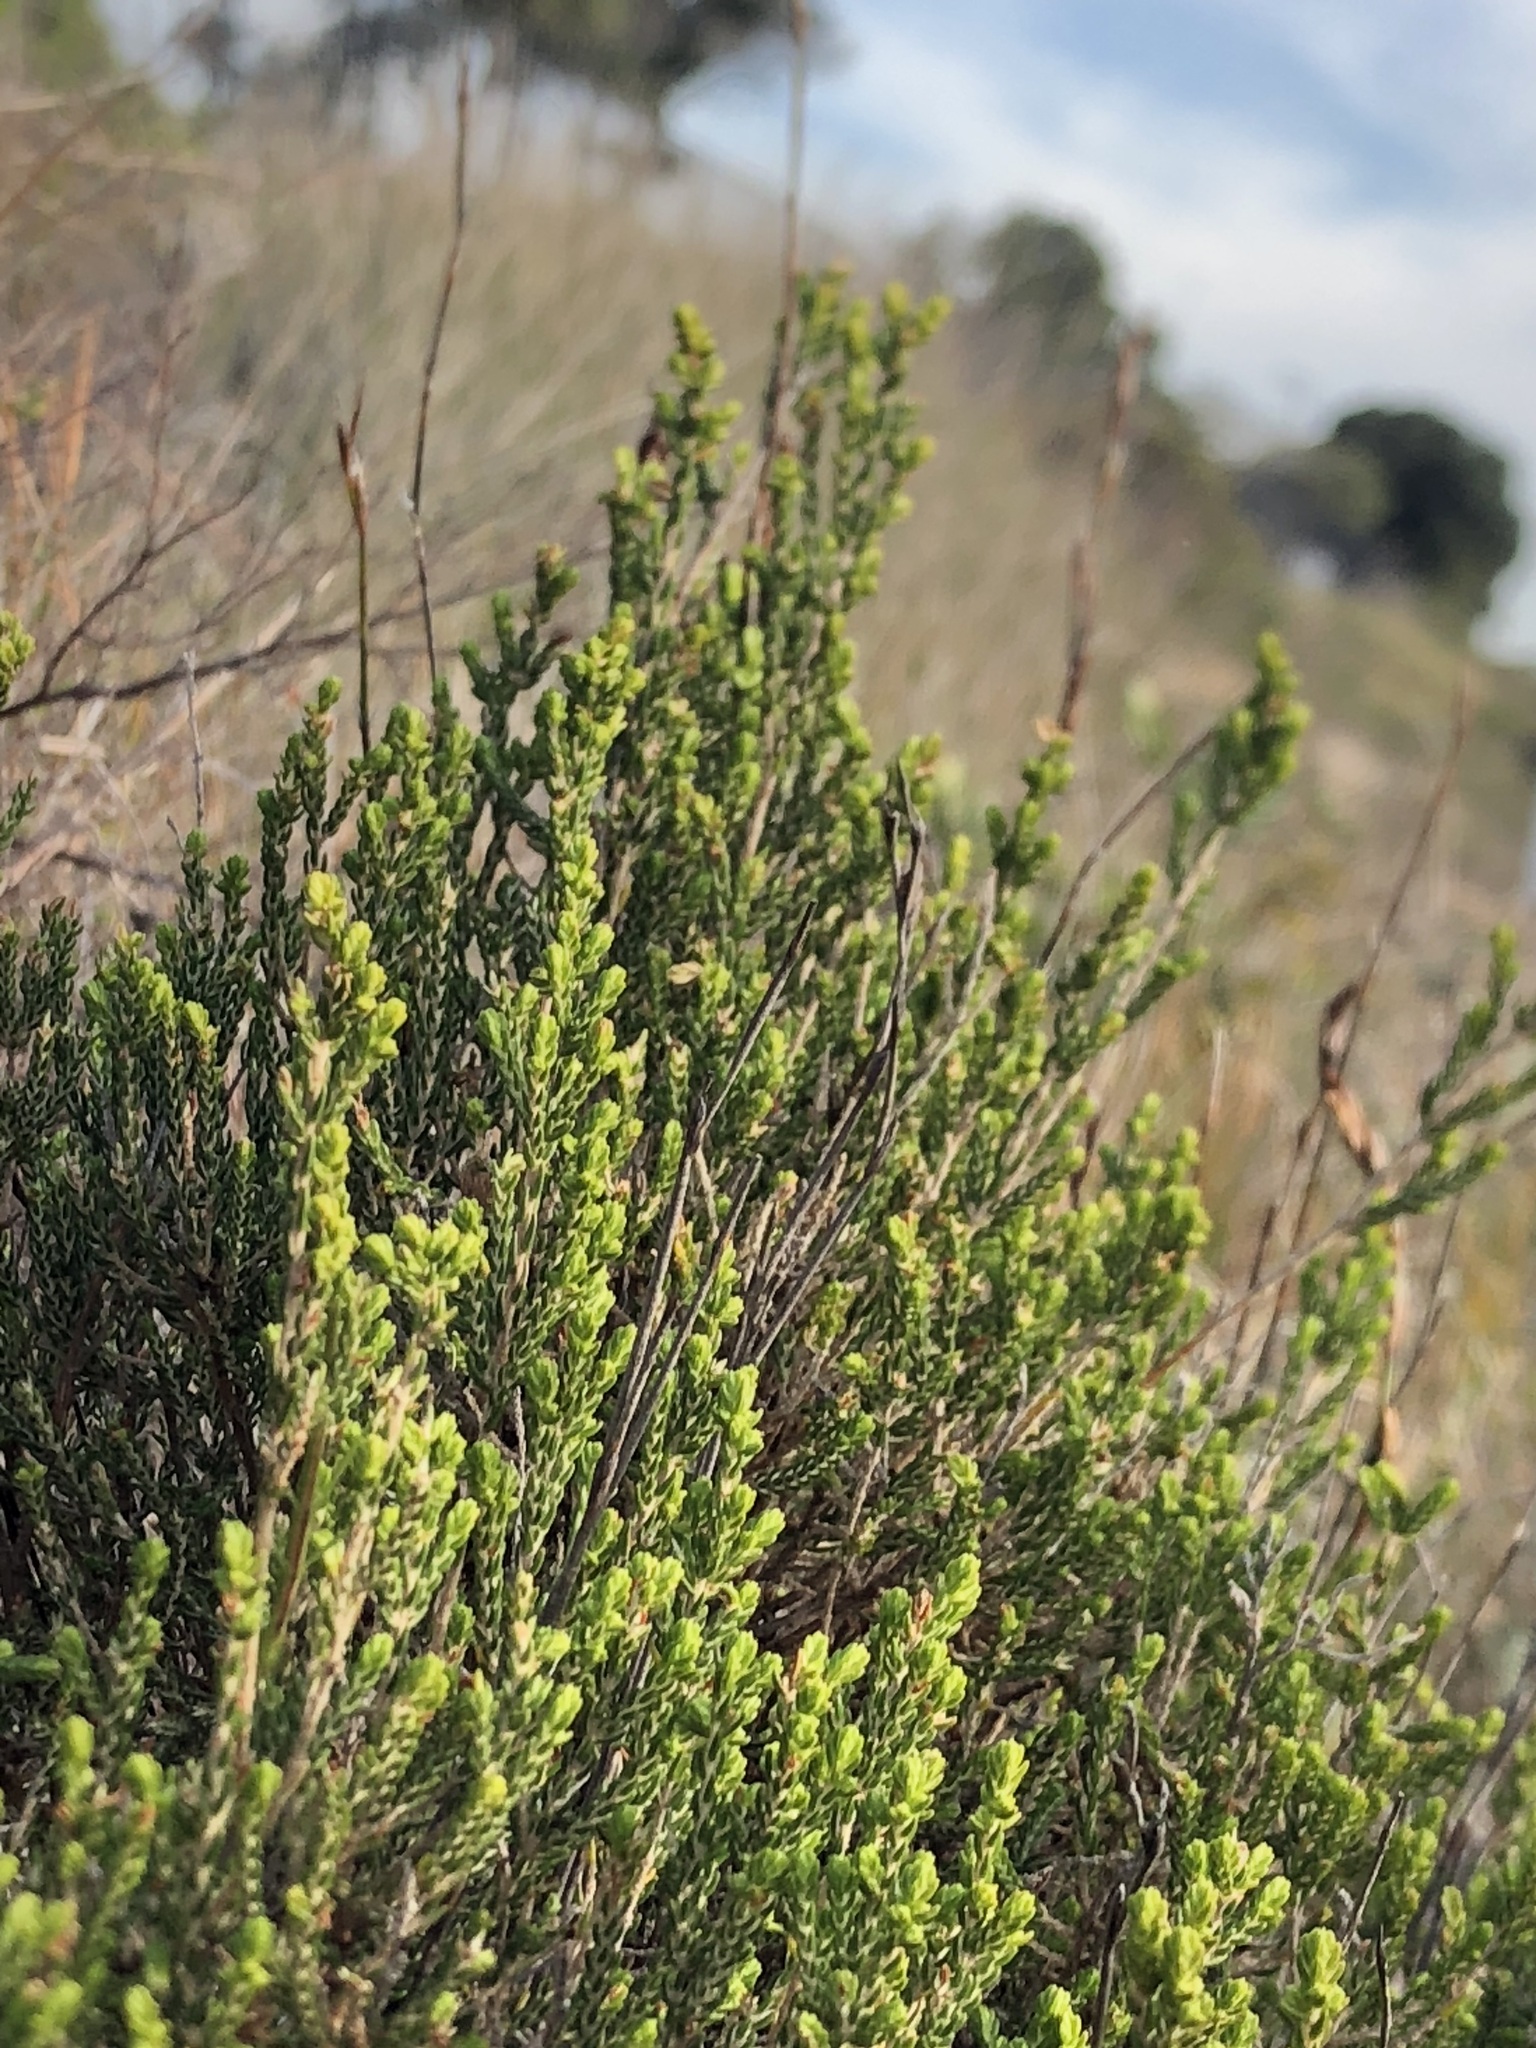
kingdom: Plantae
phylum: Tracheophyta
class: Magnoliopsida
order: Malvales
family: Thymelaeaceae
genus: Passerina
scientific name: Passerina corymbosa
